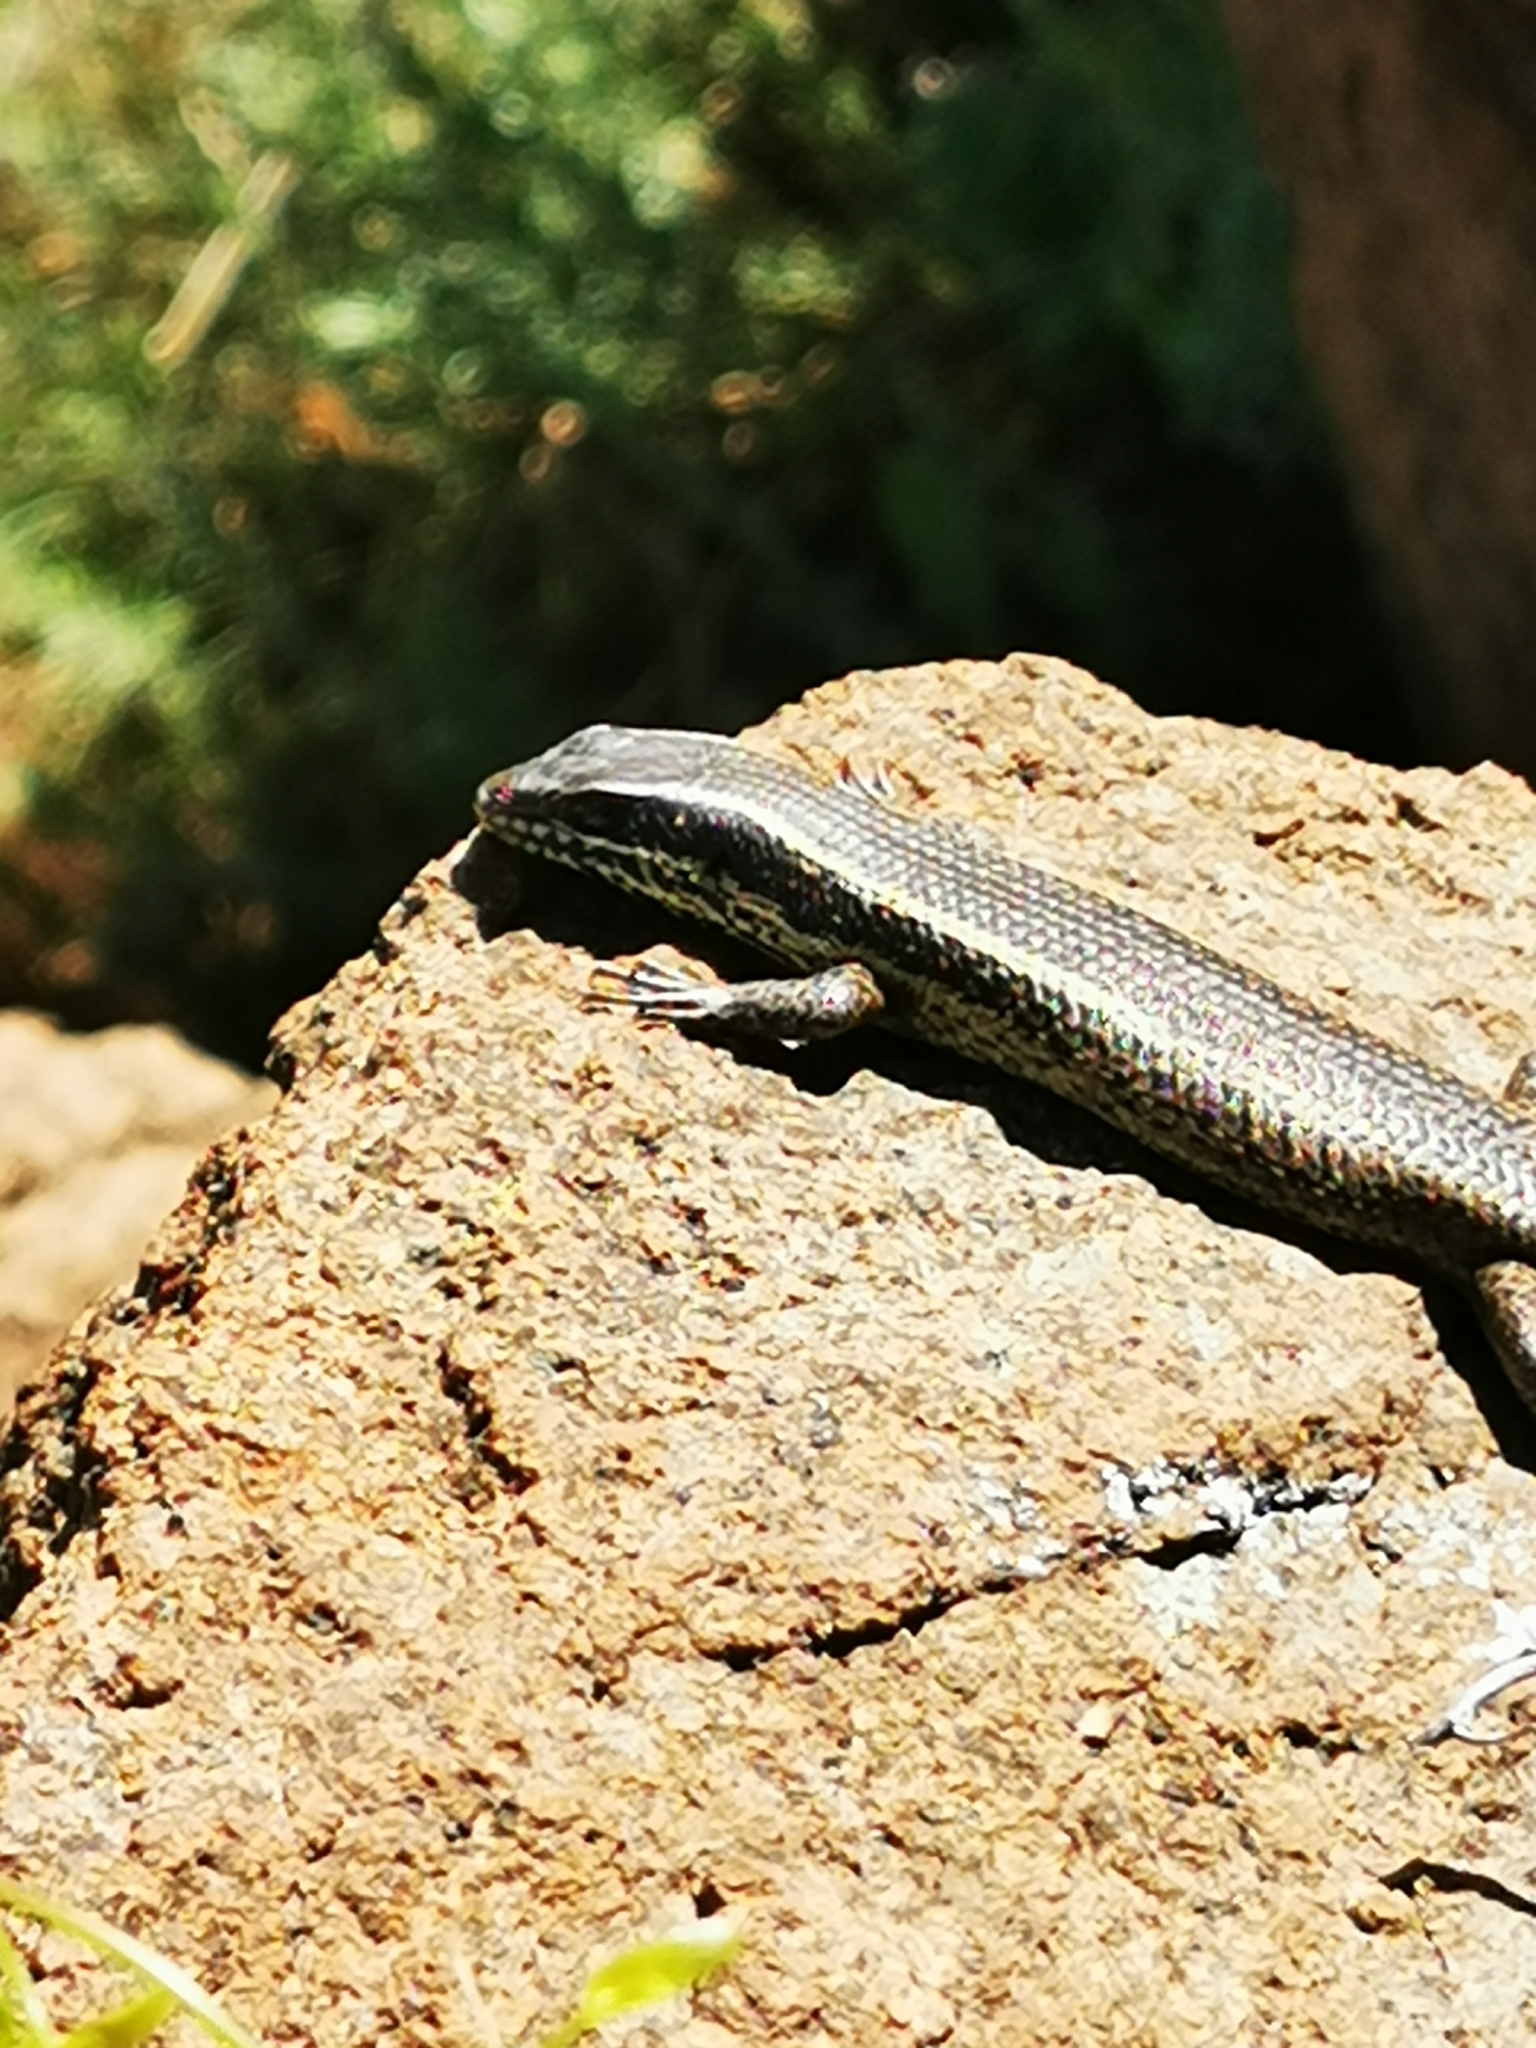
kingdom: Animalia
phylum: Chordata
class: Squamata
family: Scincidae
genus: Trachylepis
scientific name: Trachylepis punctatissima
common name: Montane speckled skink
